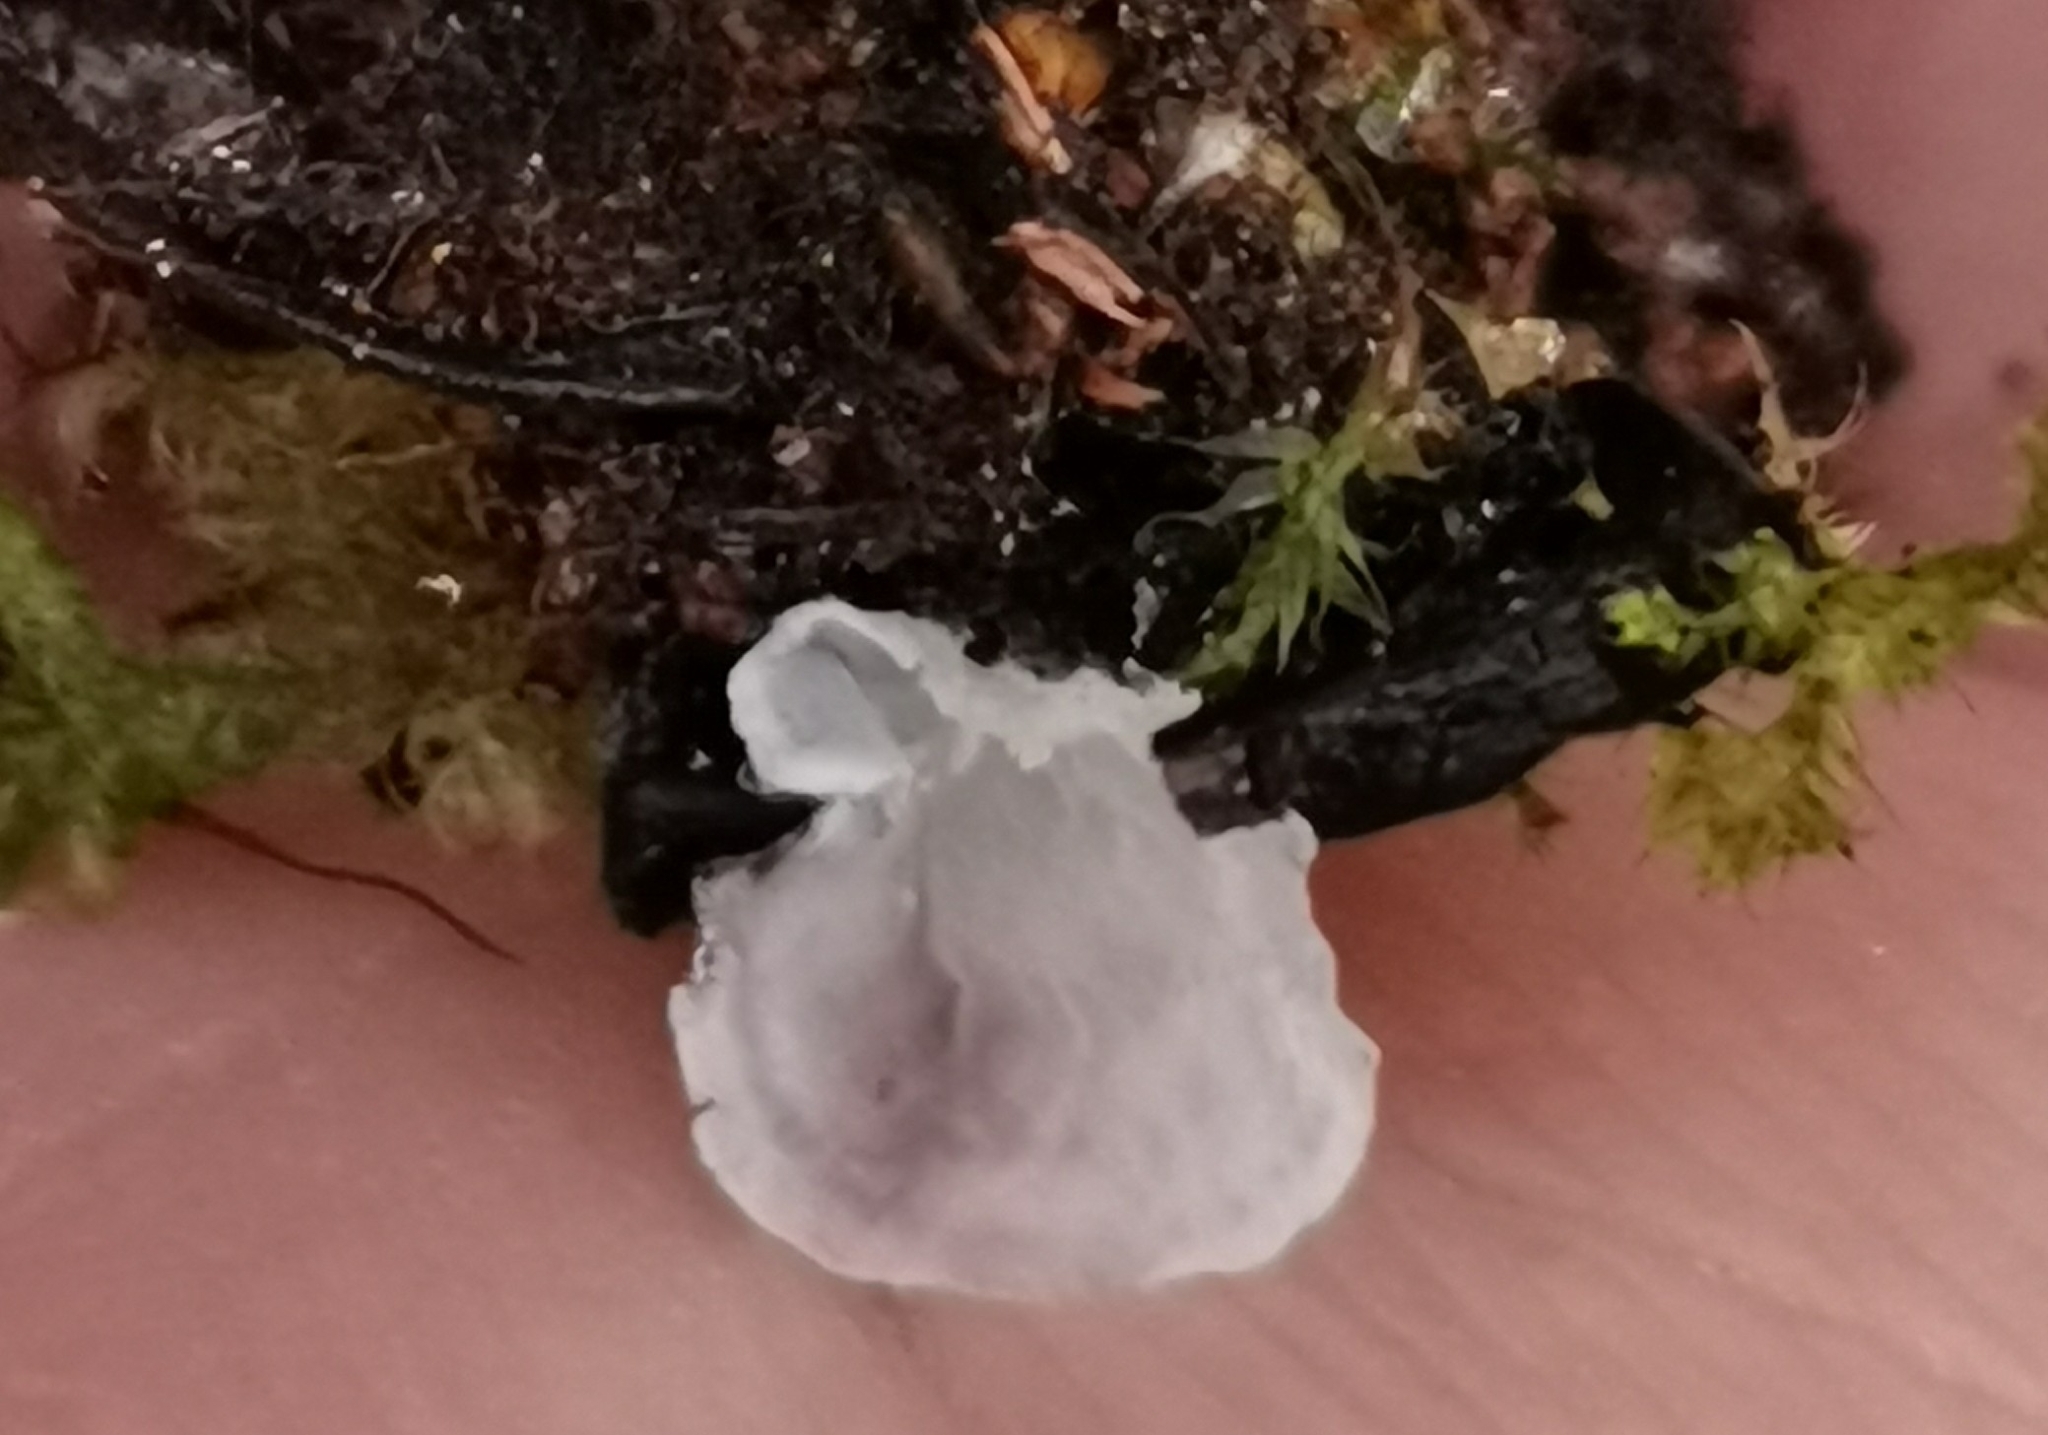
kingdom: Fungi
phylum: Basidiomycota
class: Agaricomycetes
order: Agaricales
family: Hygrophoraceae
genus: Arrhenia
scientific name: Arrhenia retiruga
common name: Small moss oysterling
